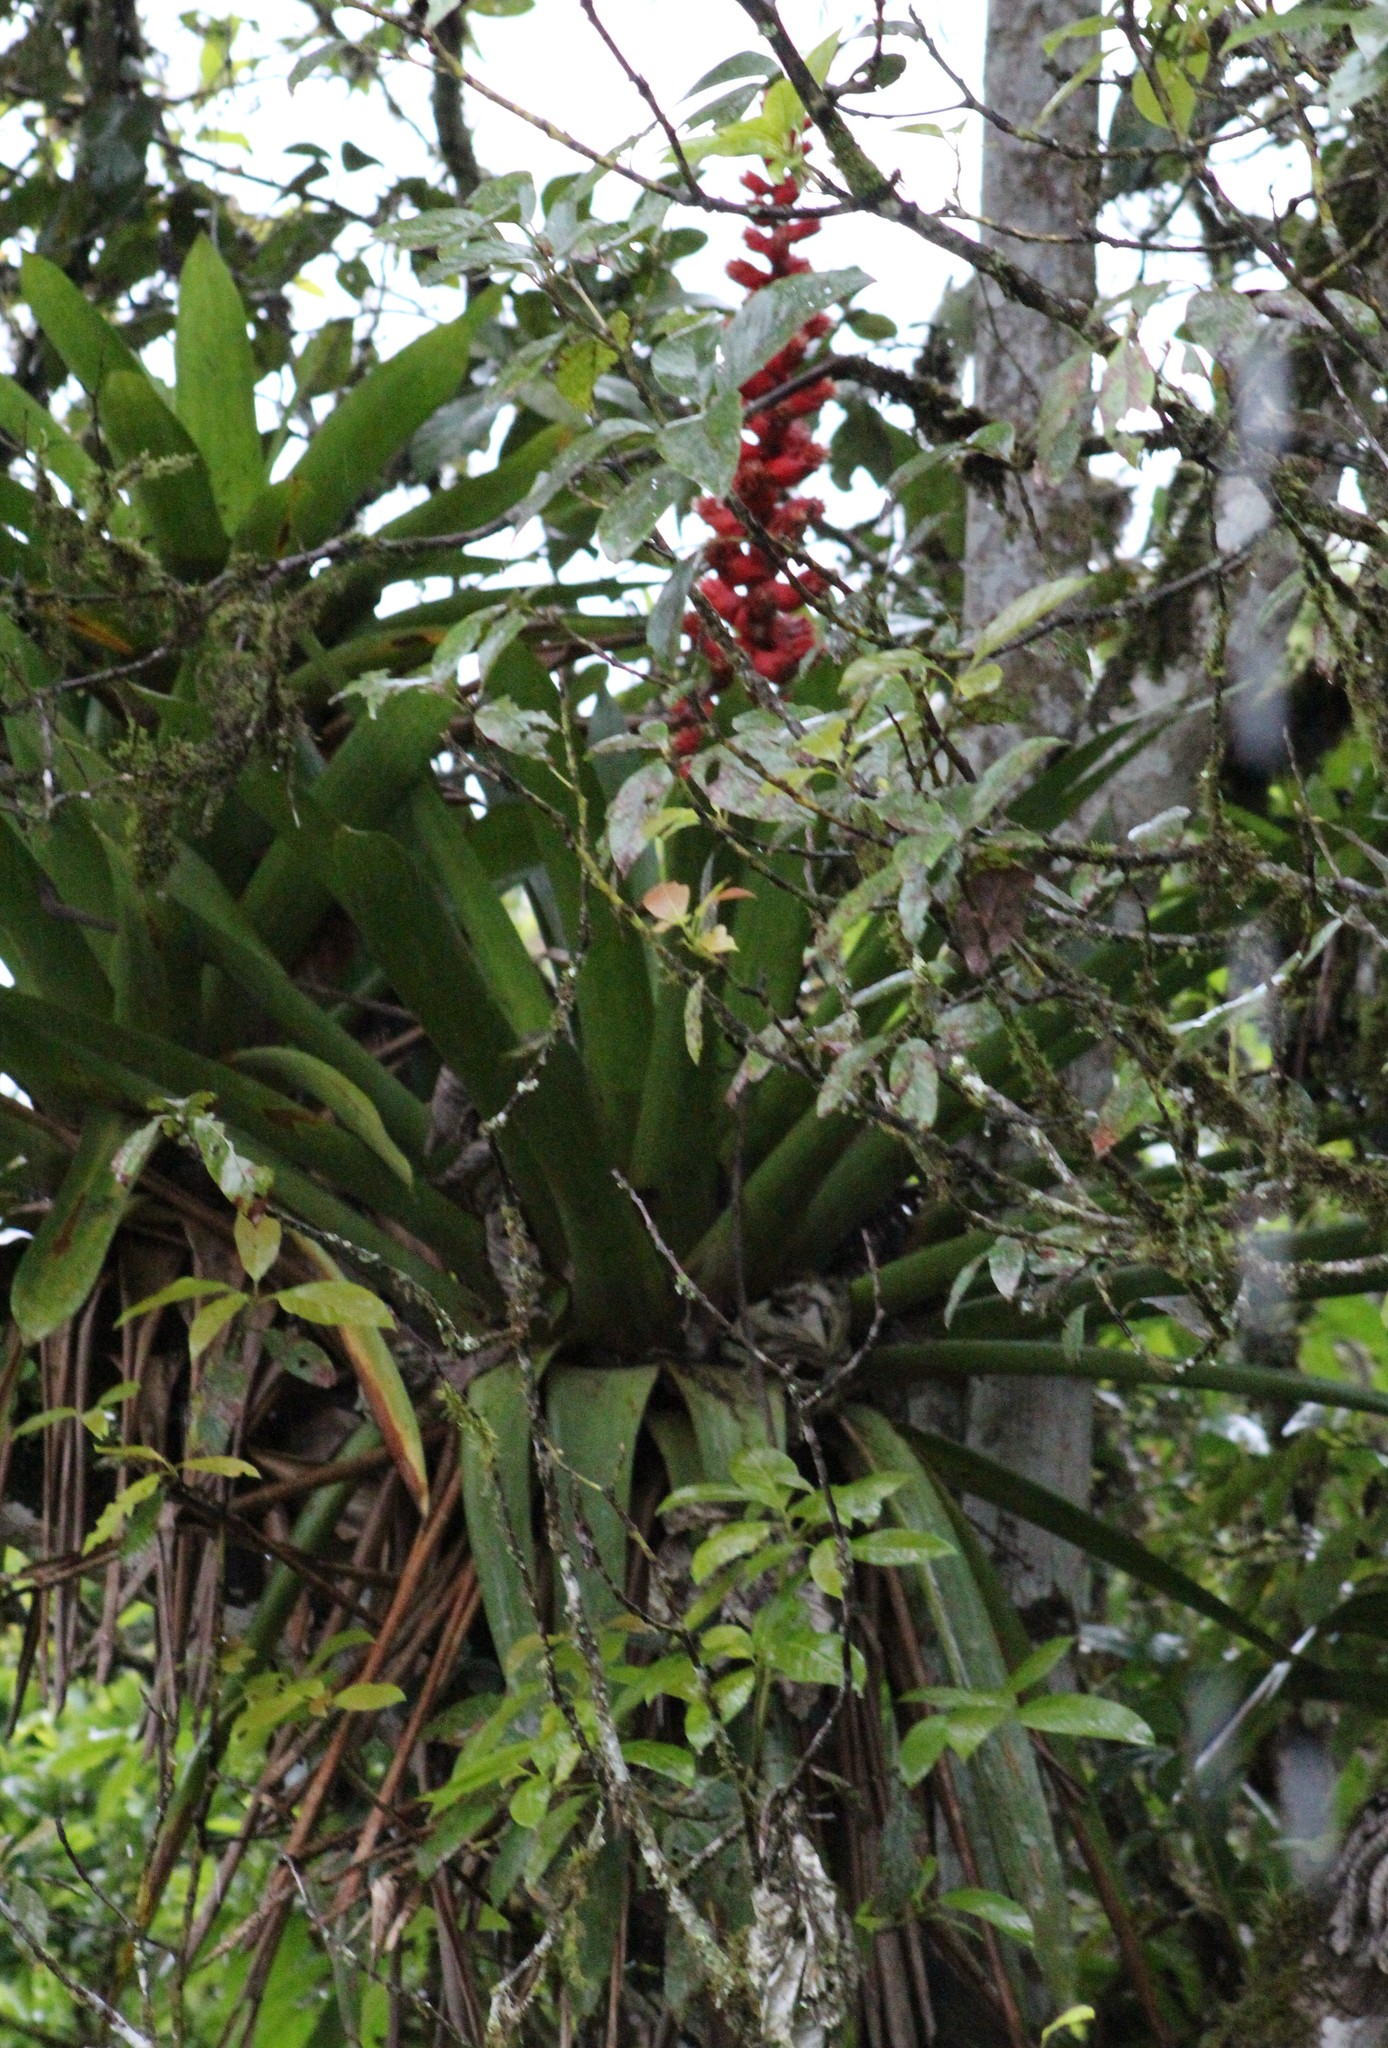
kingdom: Plantae
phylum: Tracheophyta
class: Liliopsida
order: Poales
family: Bromeliaceae
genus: Cipuropsis
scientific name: Cipuropsis capituligera
